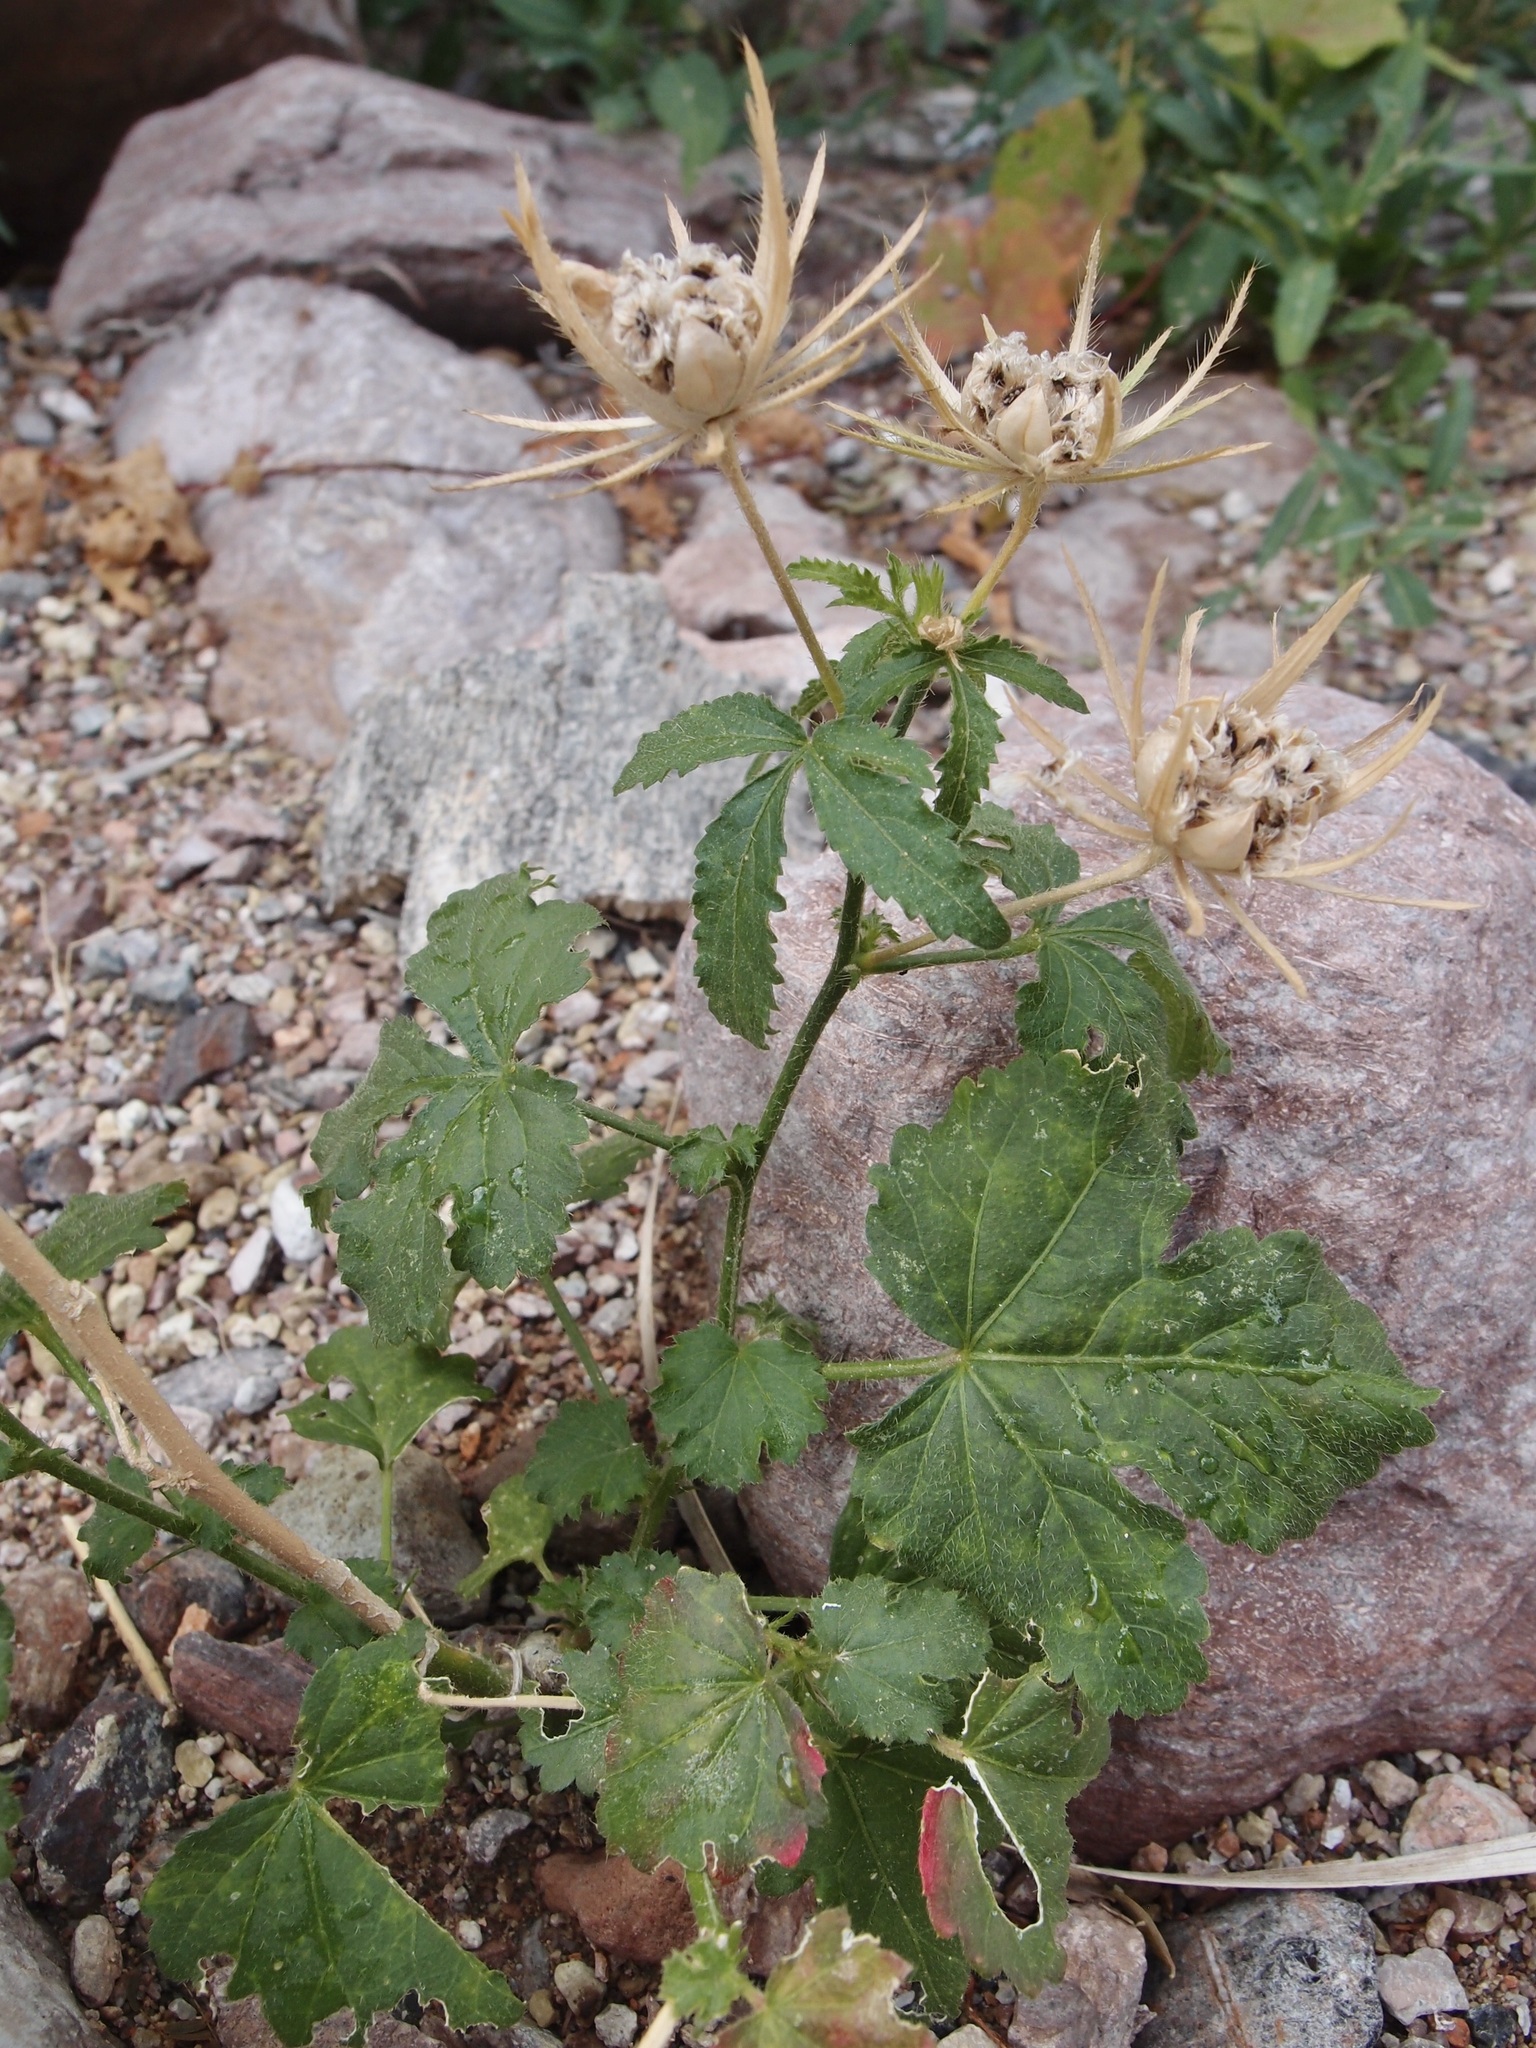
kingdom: Plantae
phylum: Tracheophyta
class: Magnoliopsida
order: Malvales
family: Malvaceae
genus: Hibiscus
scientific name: Hibiscus biseptus
